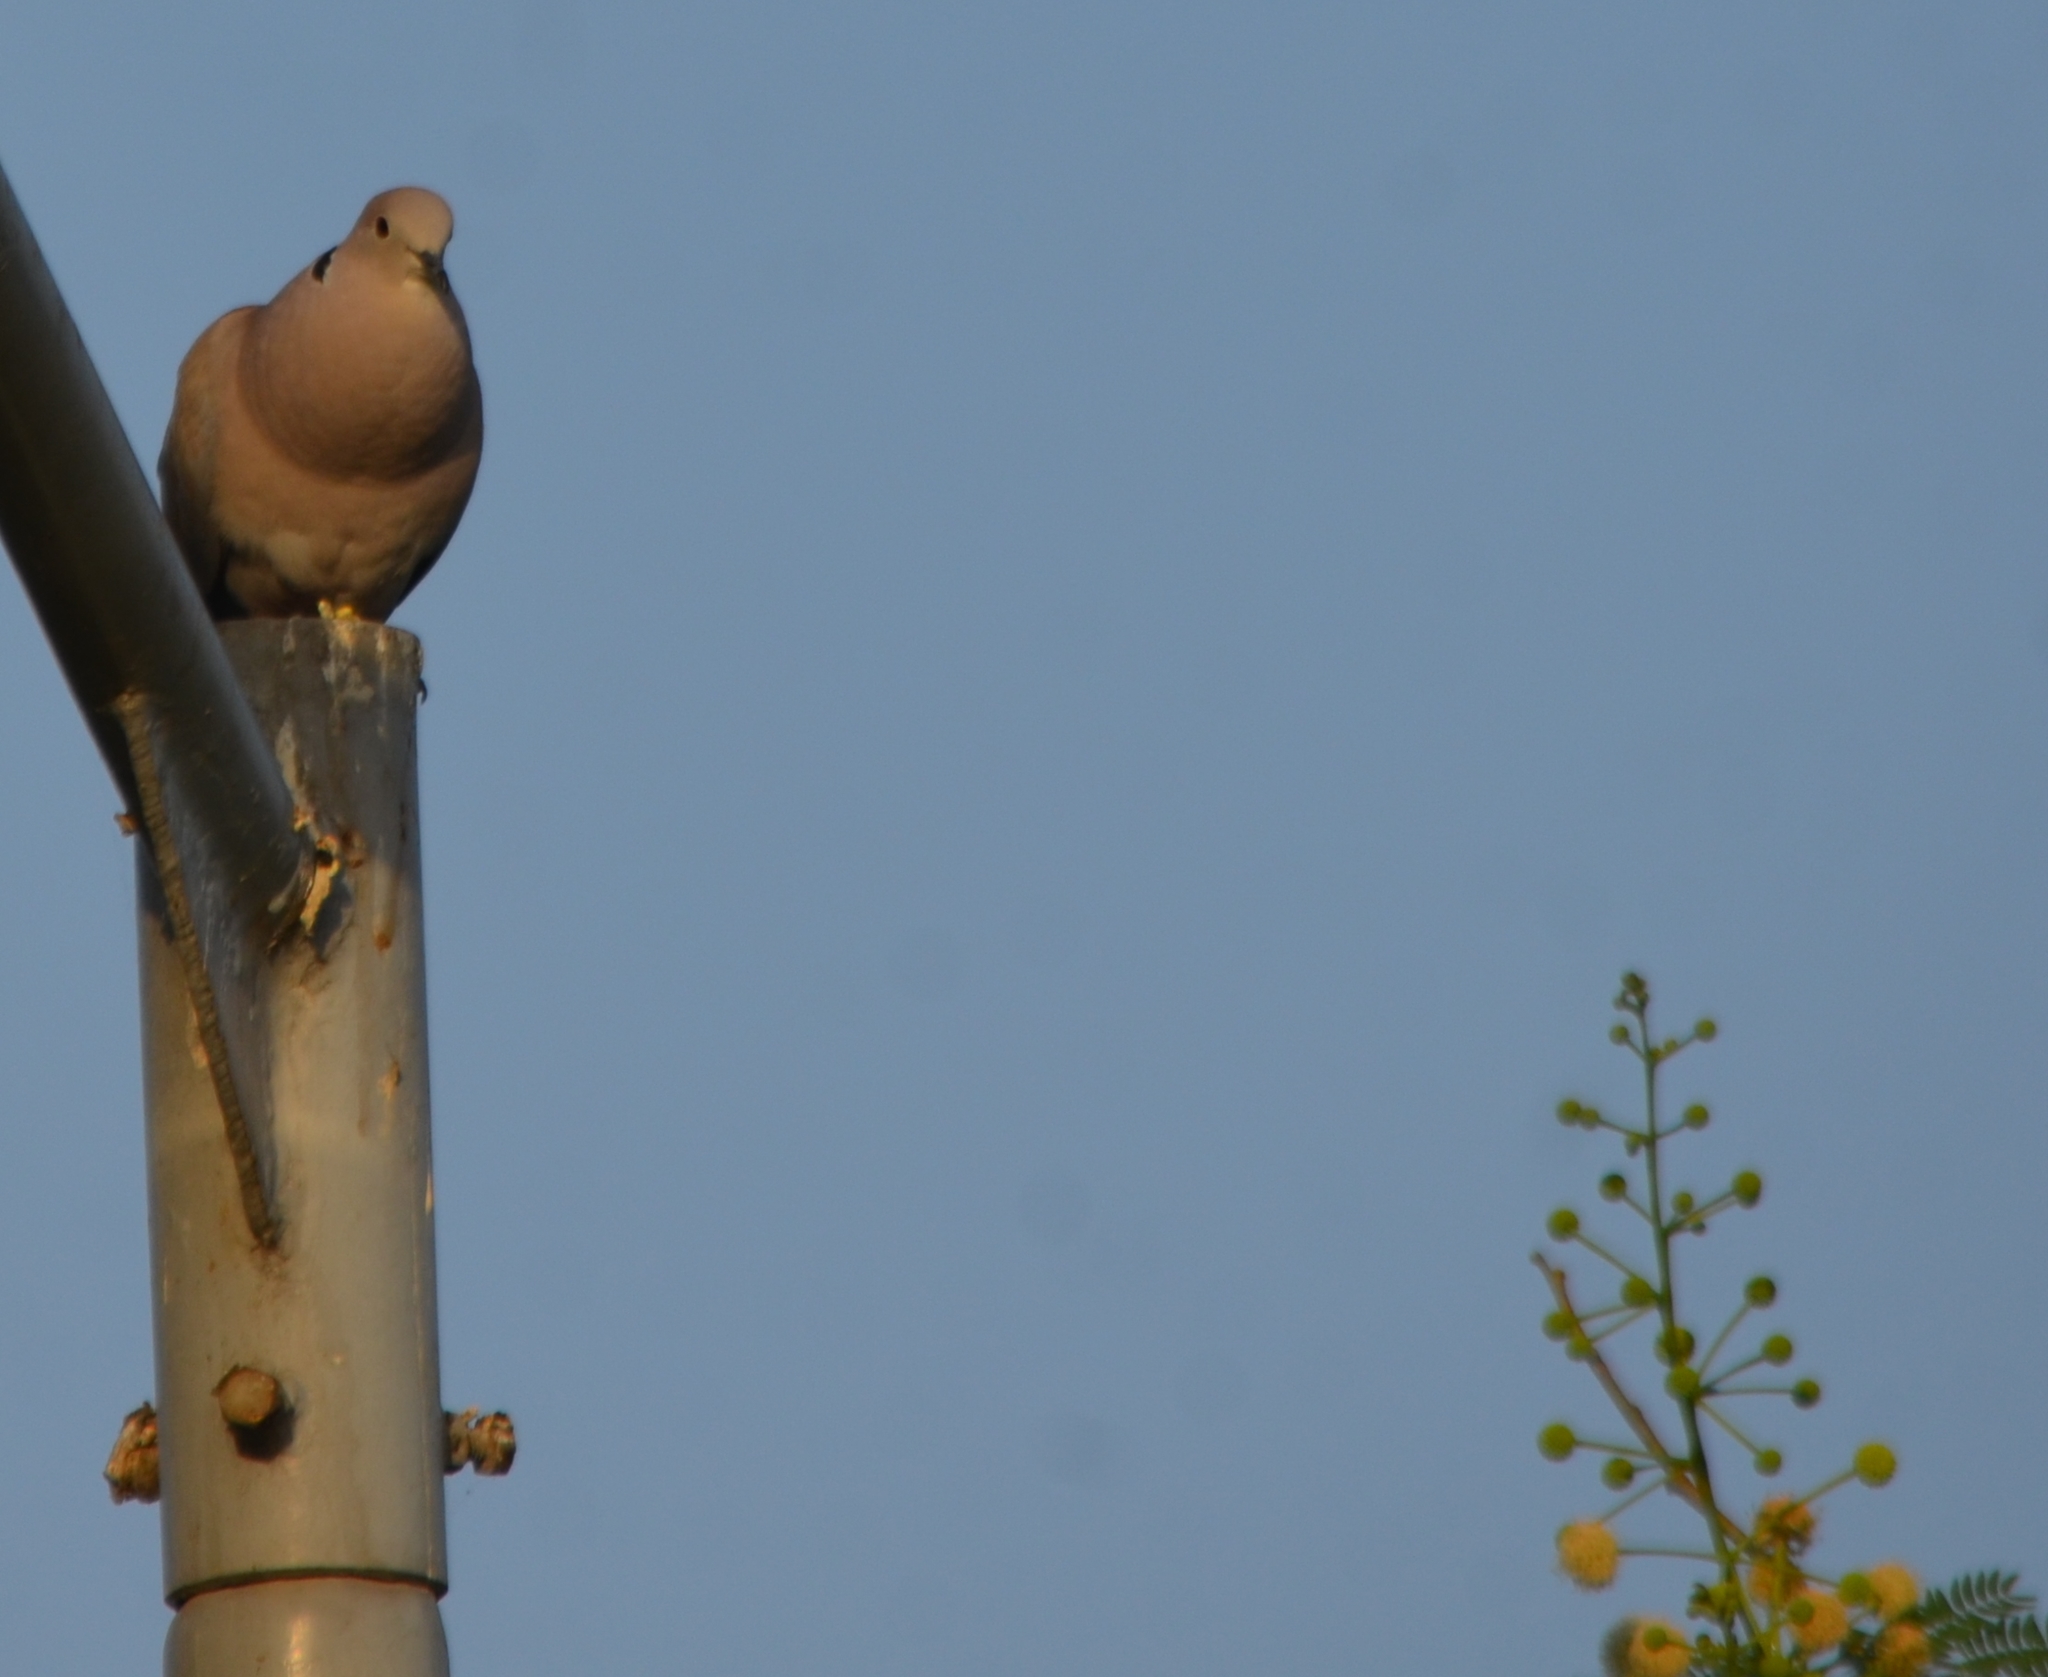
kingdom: Animalia
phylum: Chordata
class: Aves
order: Columbiformes
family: Columbidae
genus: Spilopelia
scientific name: Spilopelia senegalensis
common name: Laughing dove
